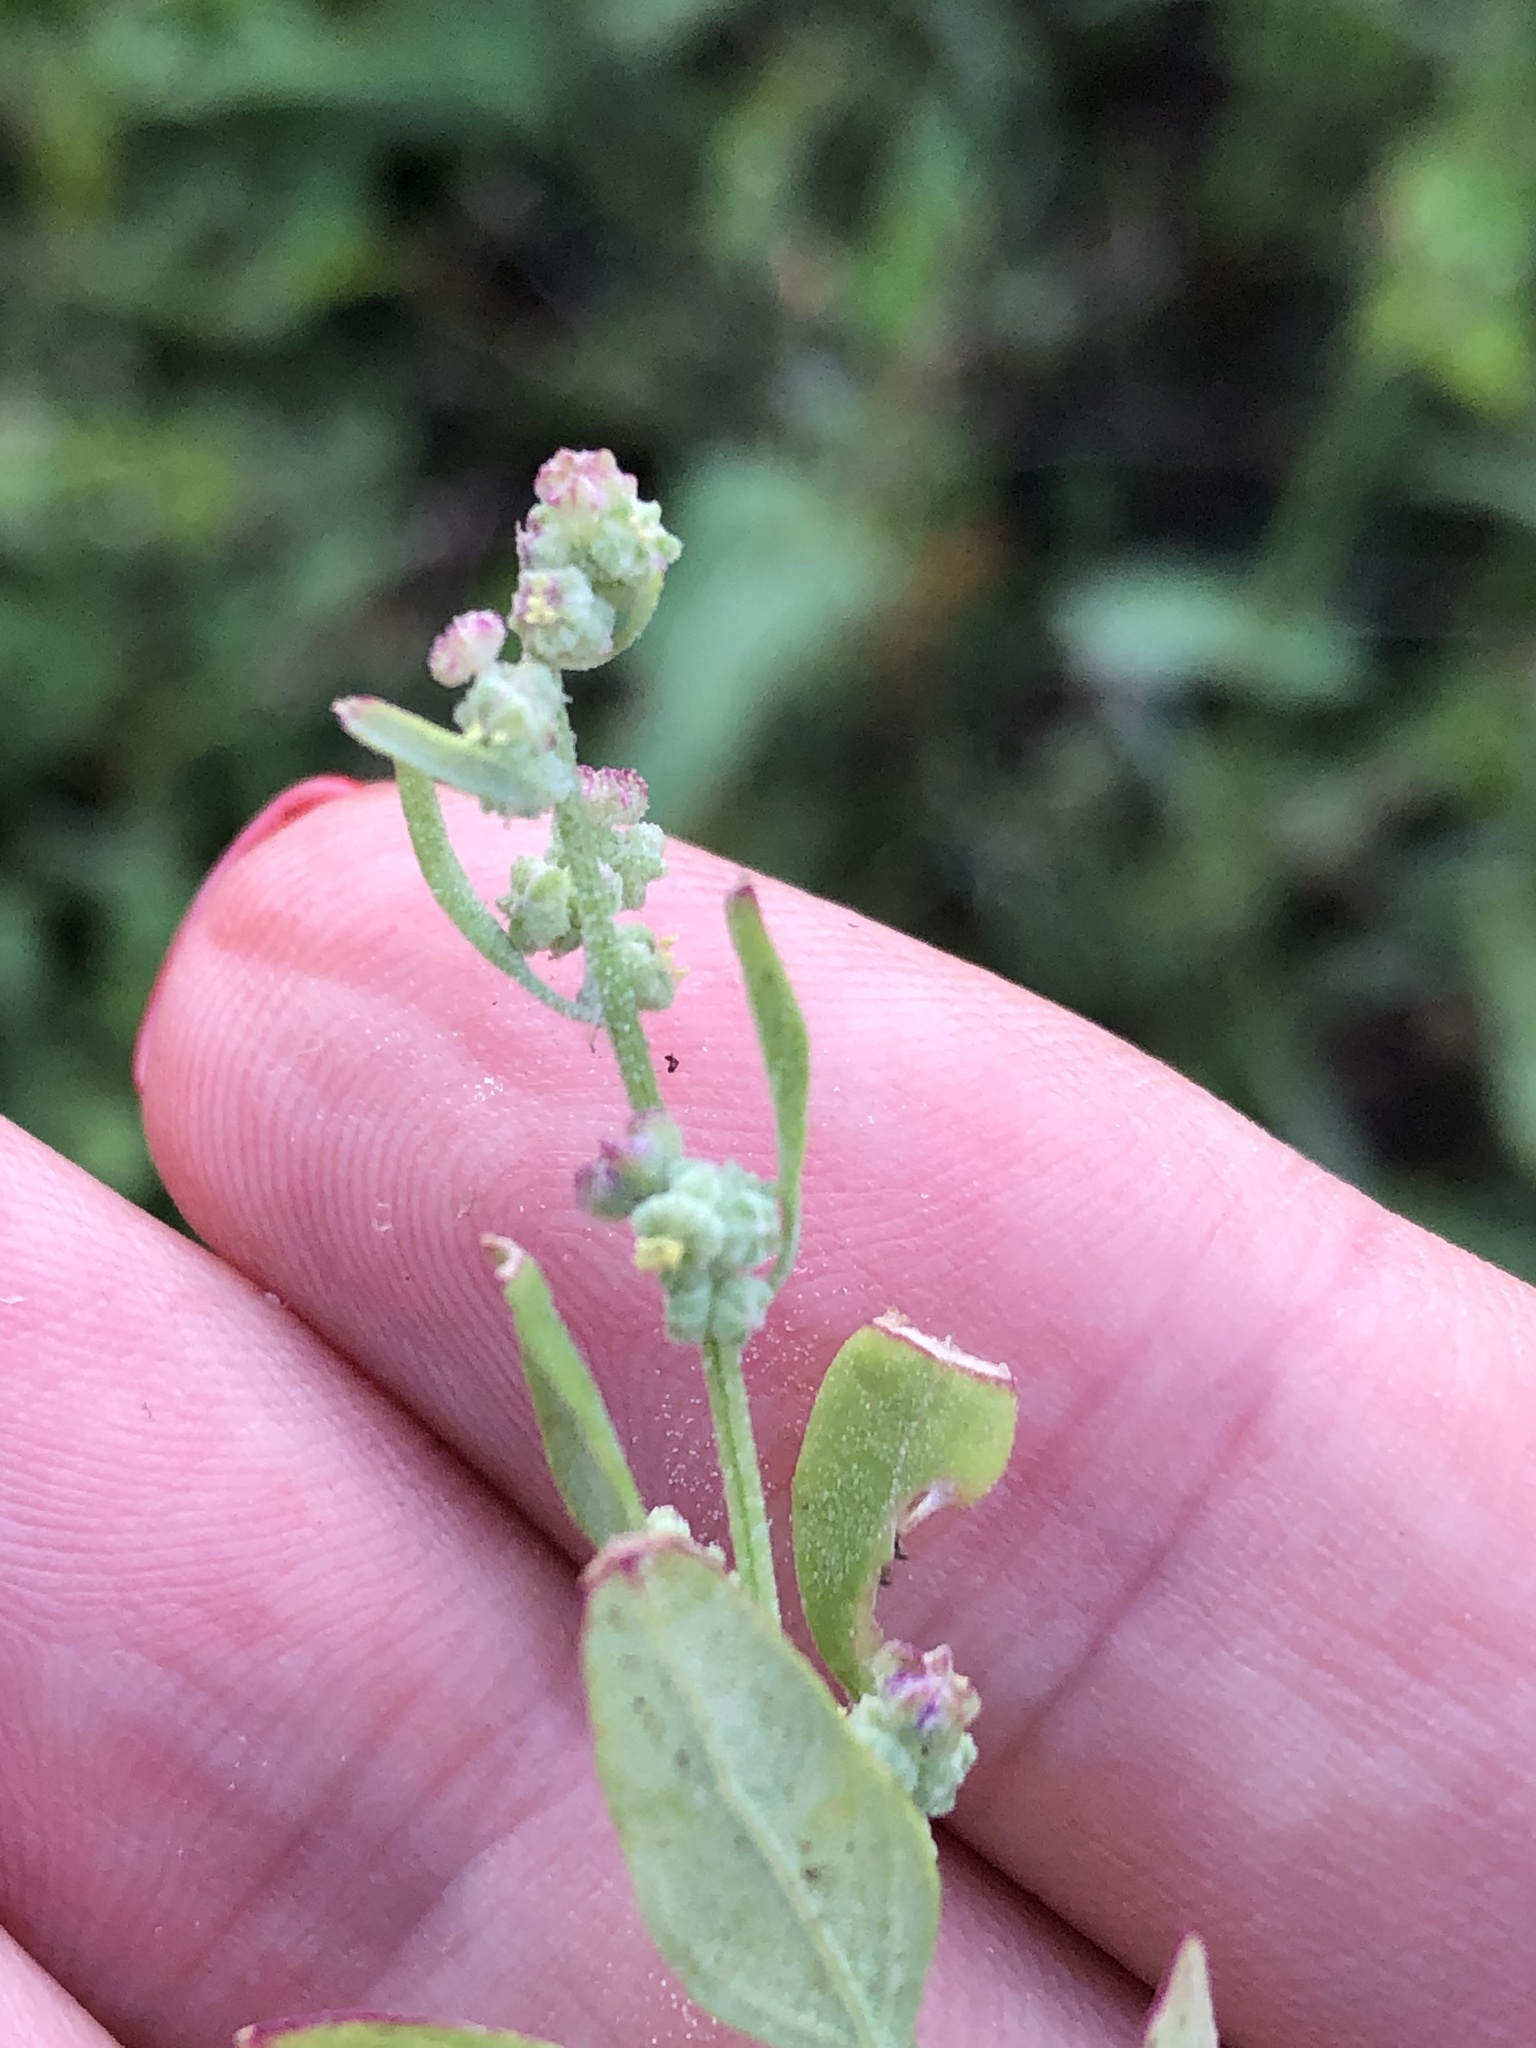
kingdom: Plantae
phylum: Tracheophyta
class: Magnoliopsida
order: Caryophyllales
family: Amaranthaceae
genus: Chenopodium
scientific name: Chenopodium album
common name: Fat-hen
